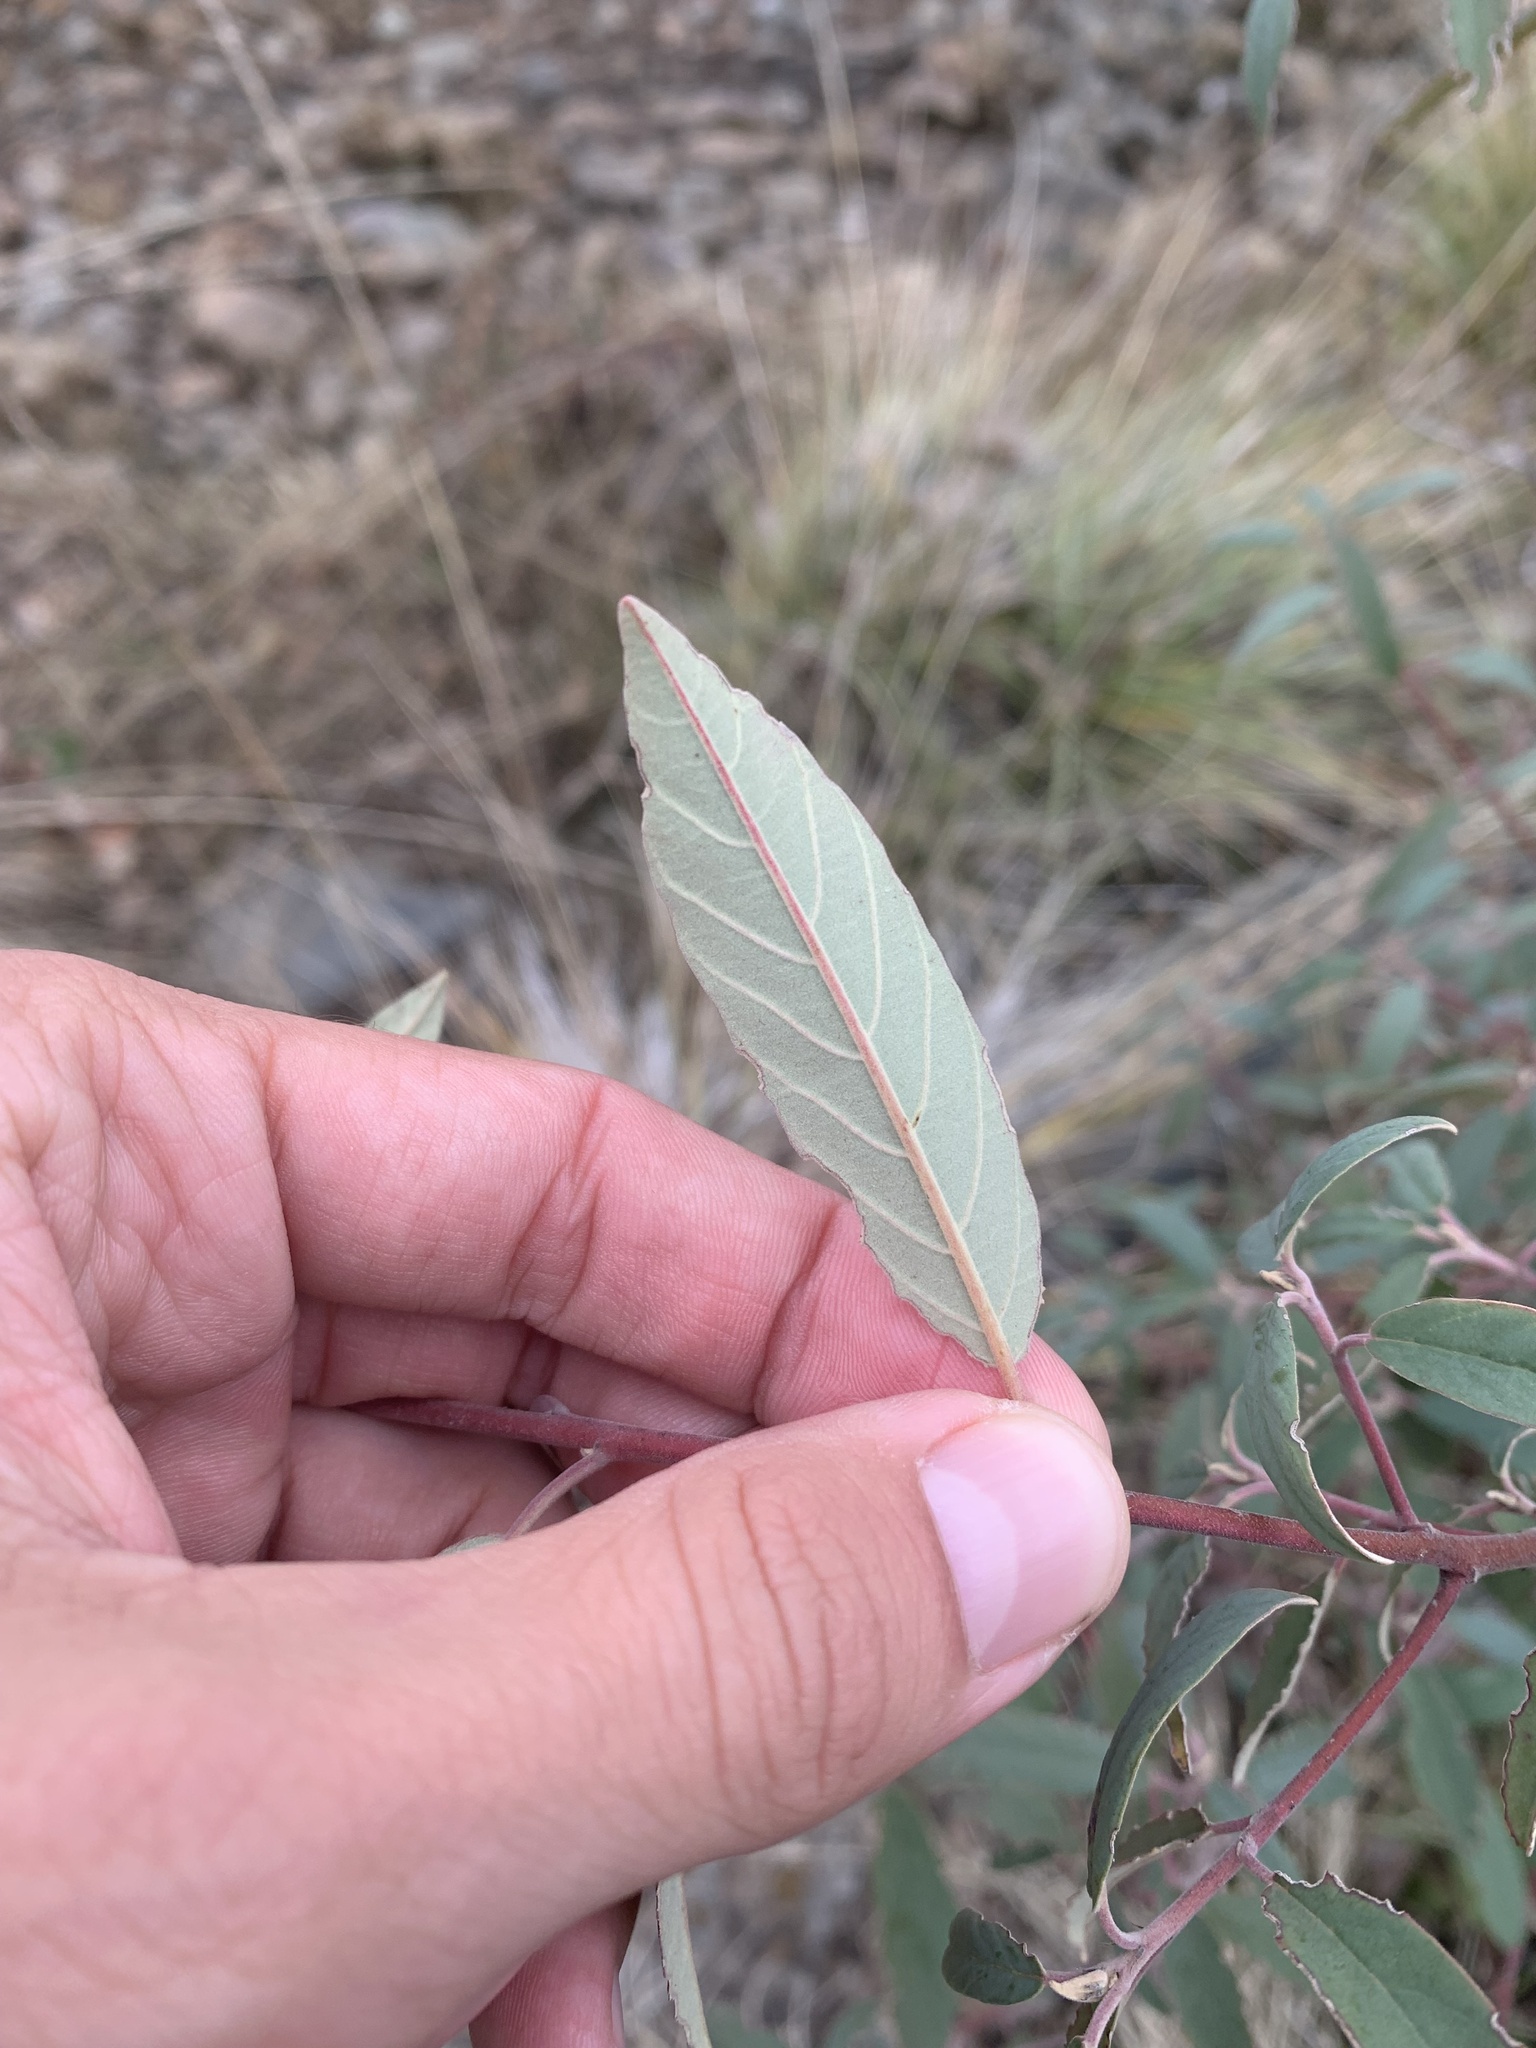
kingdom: Plantae
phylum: Tracheophyta
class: Magnoliopsida
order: Rosales
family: Rhamnaceae
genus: Frangula
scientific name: Frangula californica
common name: California buckthorn
